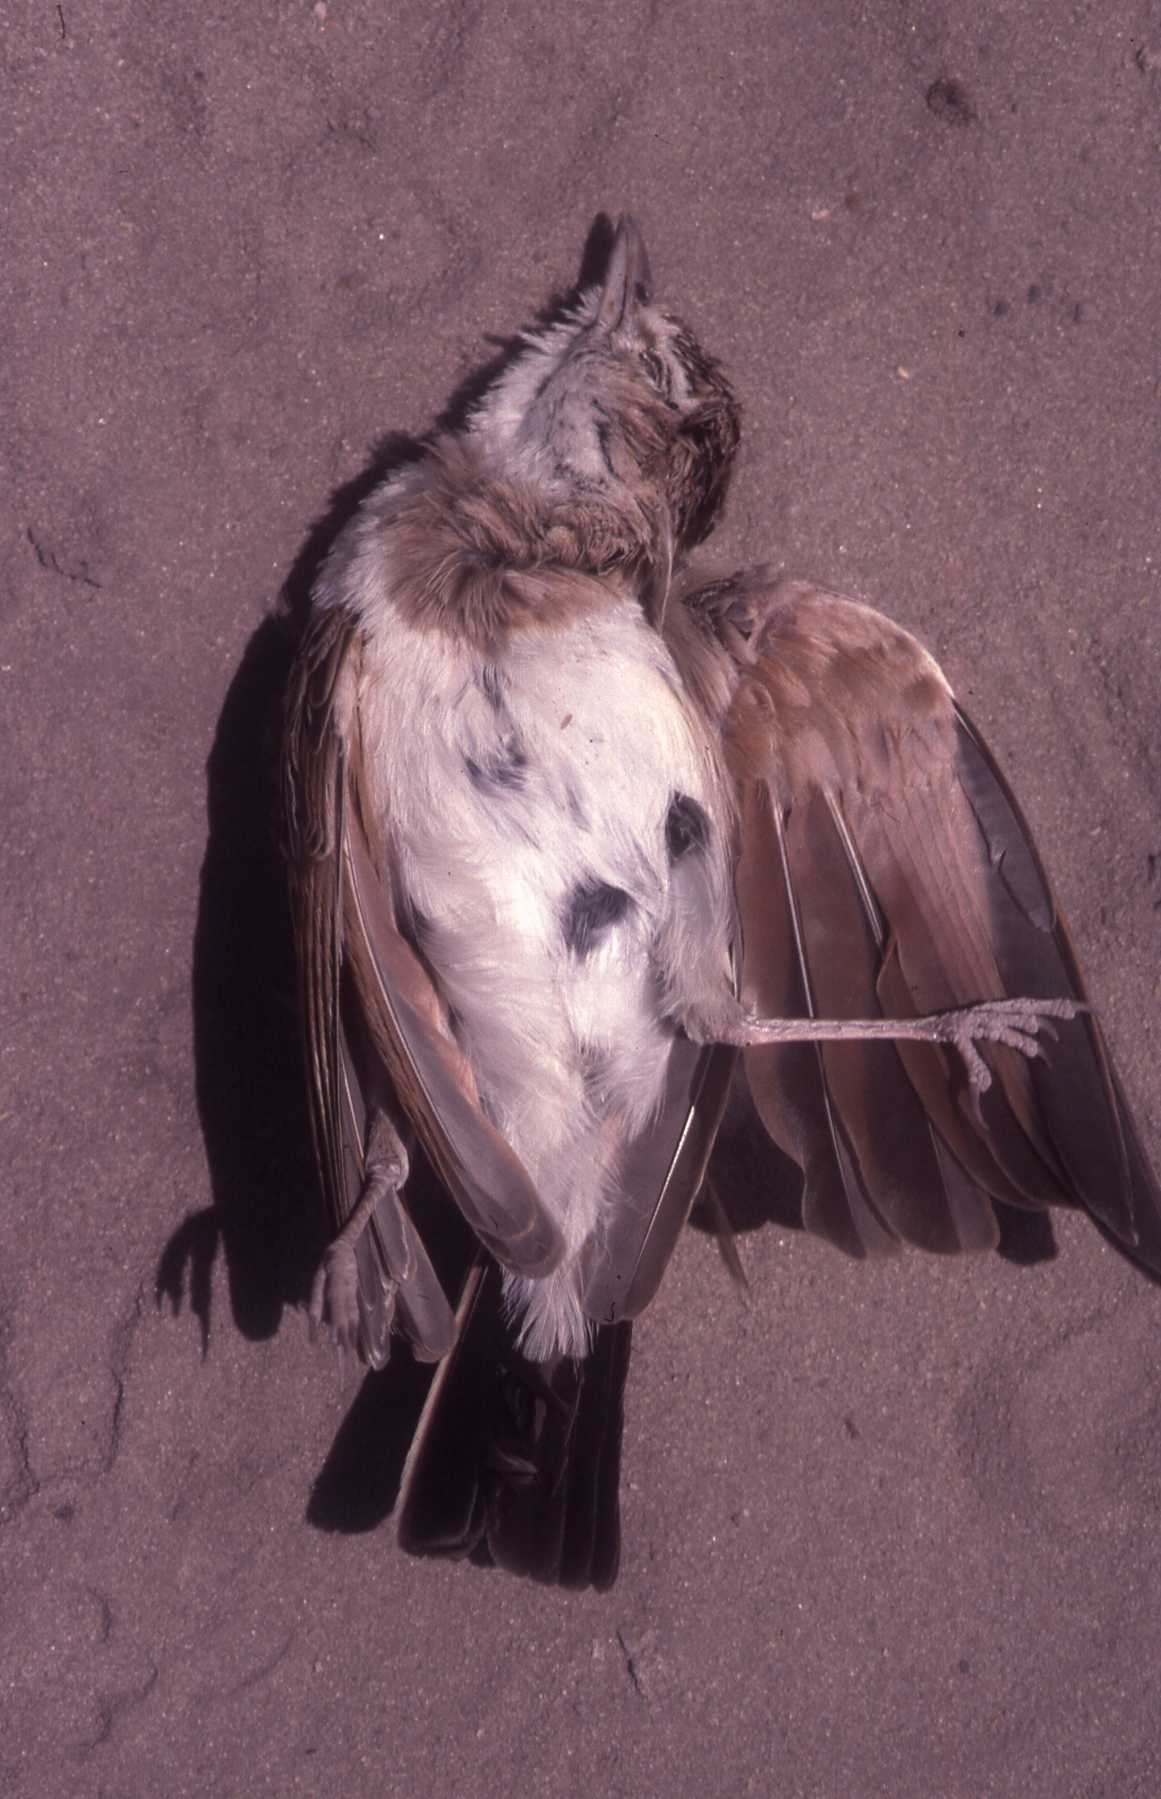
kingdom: Animalia
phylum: Chordata
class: Aves
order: Passeriformes
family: Alaudidae
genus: Calendulauda
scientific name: Calendulauda africanoides
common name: Fawn-colored lark
